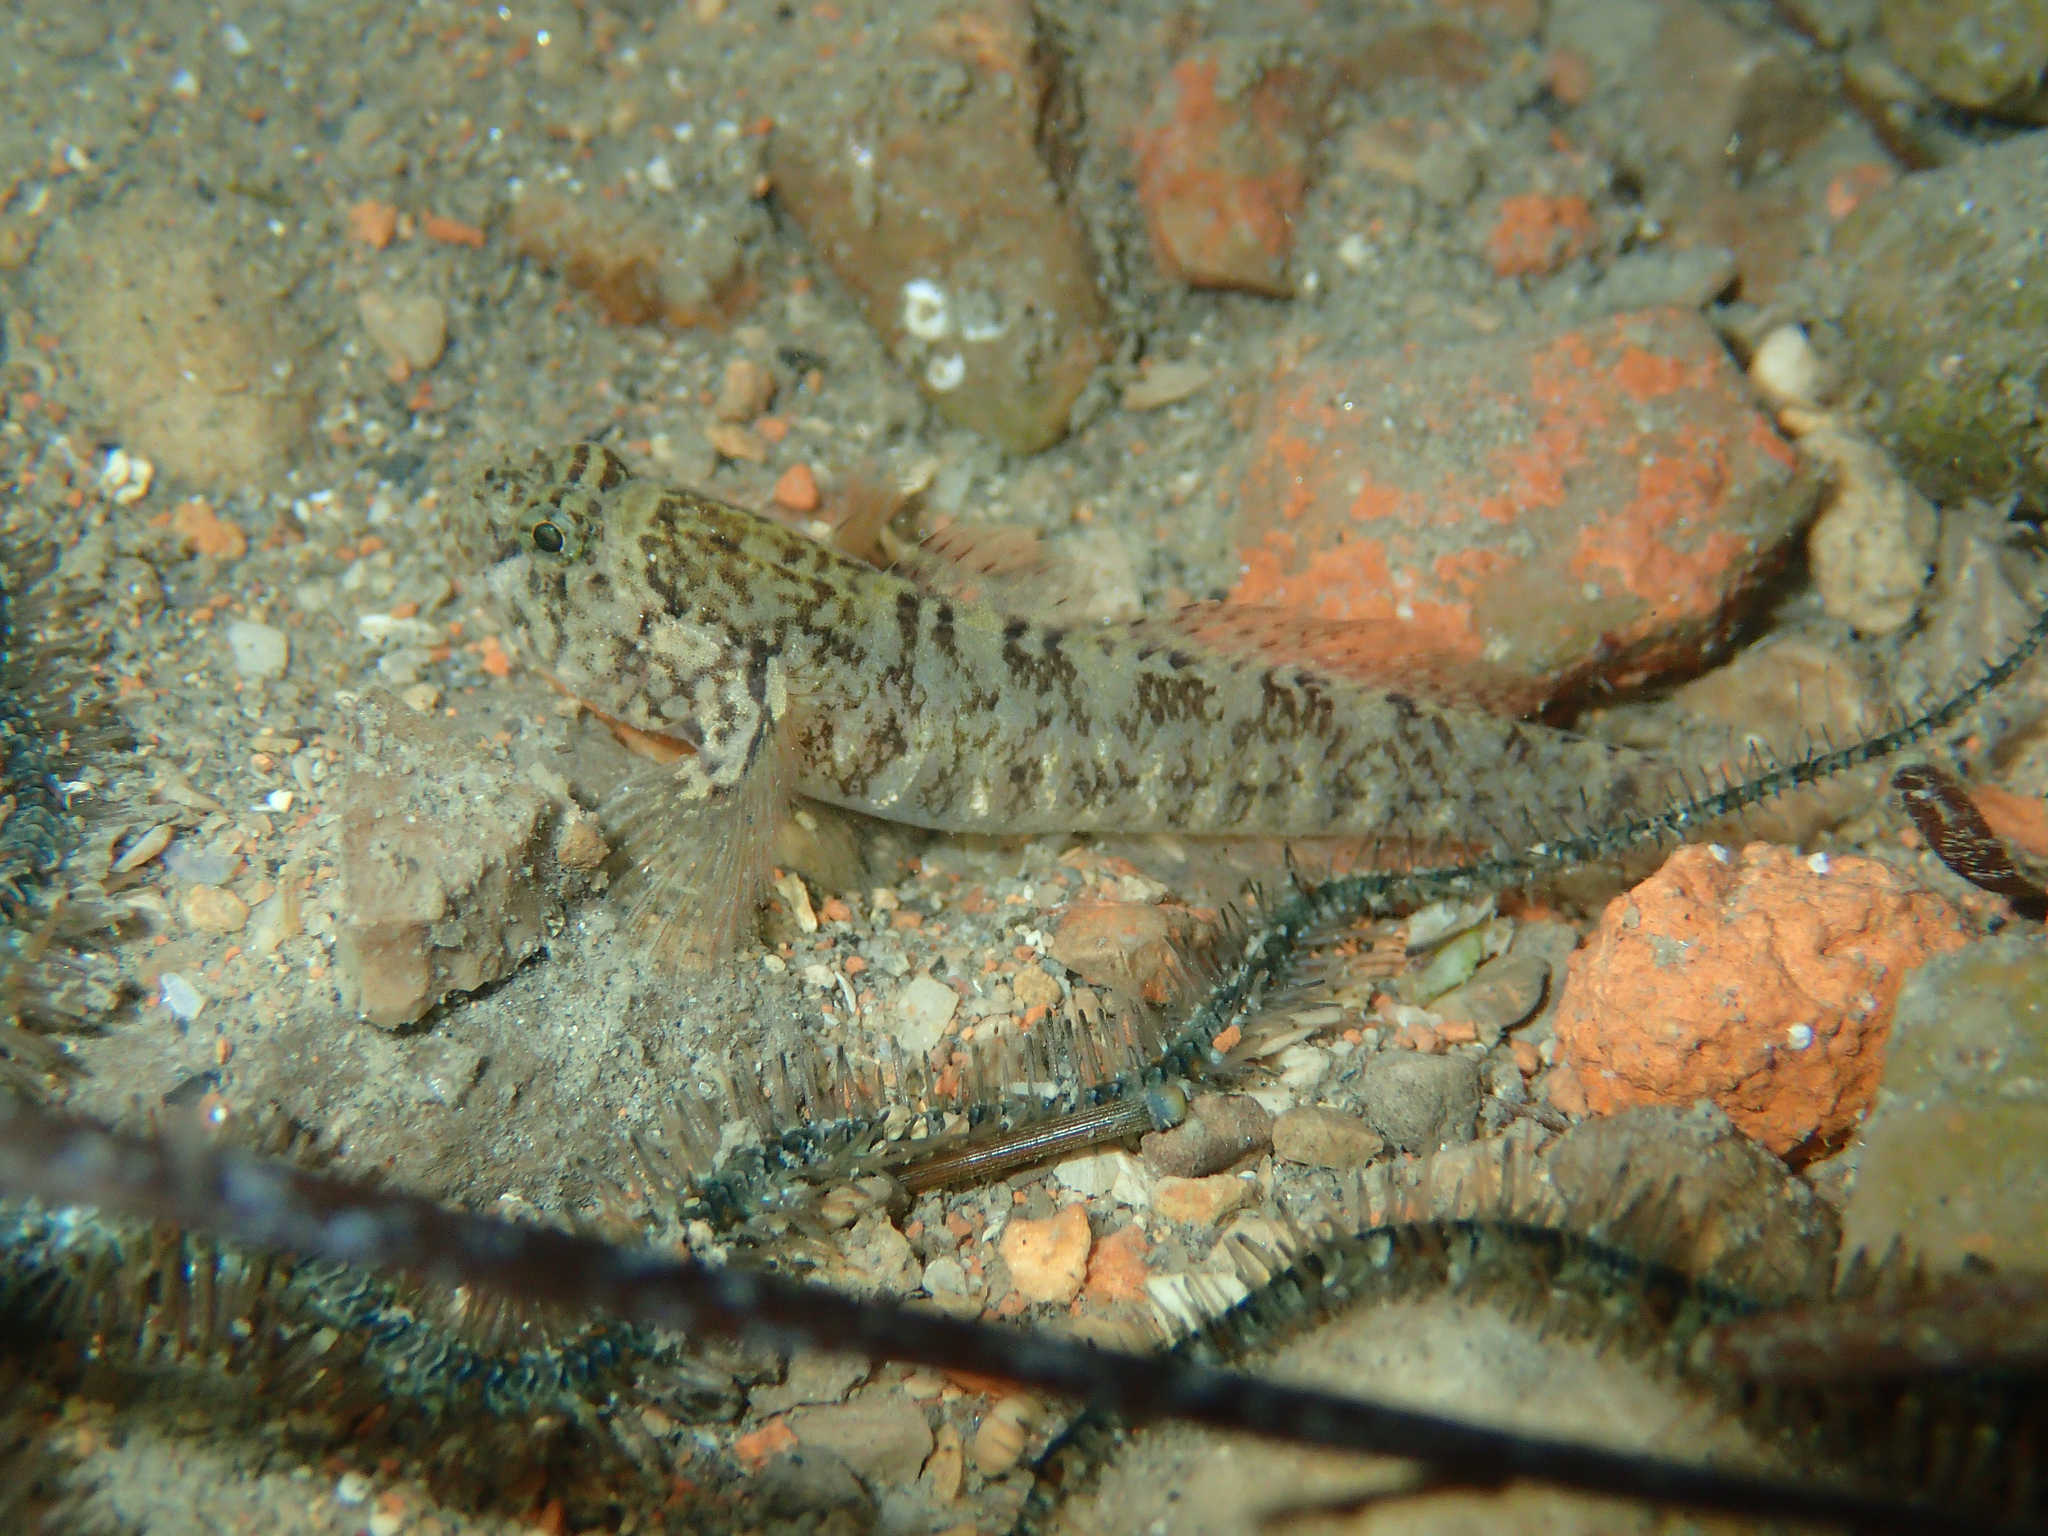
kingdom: Animalia
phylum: Chordata
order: Perciformes
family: Gobiidae
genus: Zebrus
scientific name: Zebrus zebrus
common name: Zebra goby
